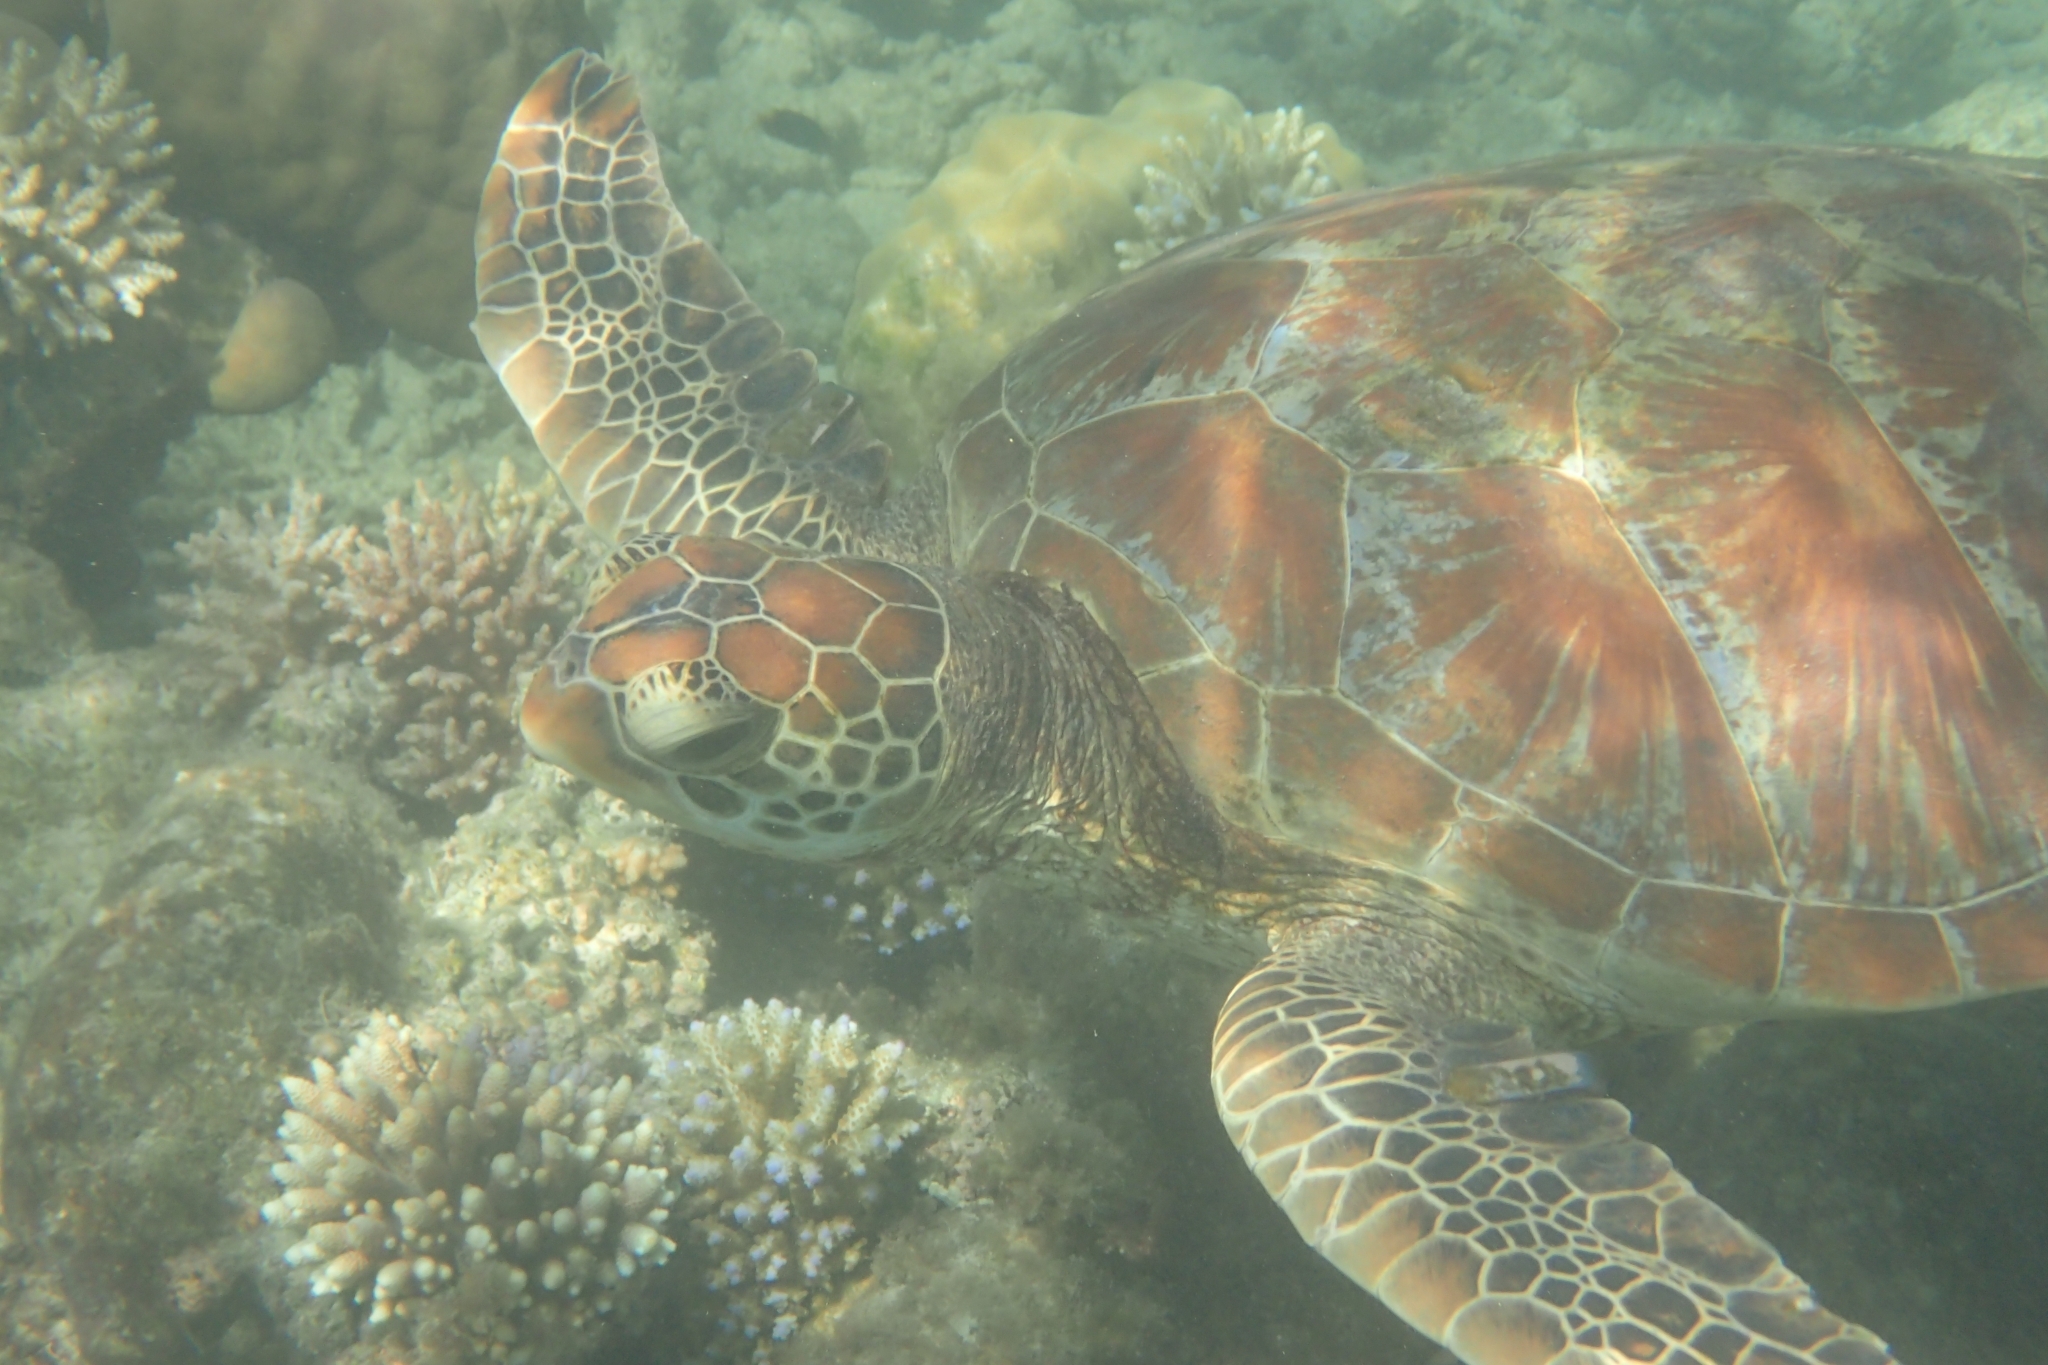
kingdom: Animalia
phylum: Chordata
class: Testudines
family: Cheloniidae
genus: Chelonia
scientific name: Chelonia mydas
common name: Green turtle
